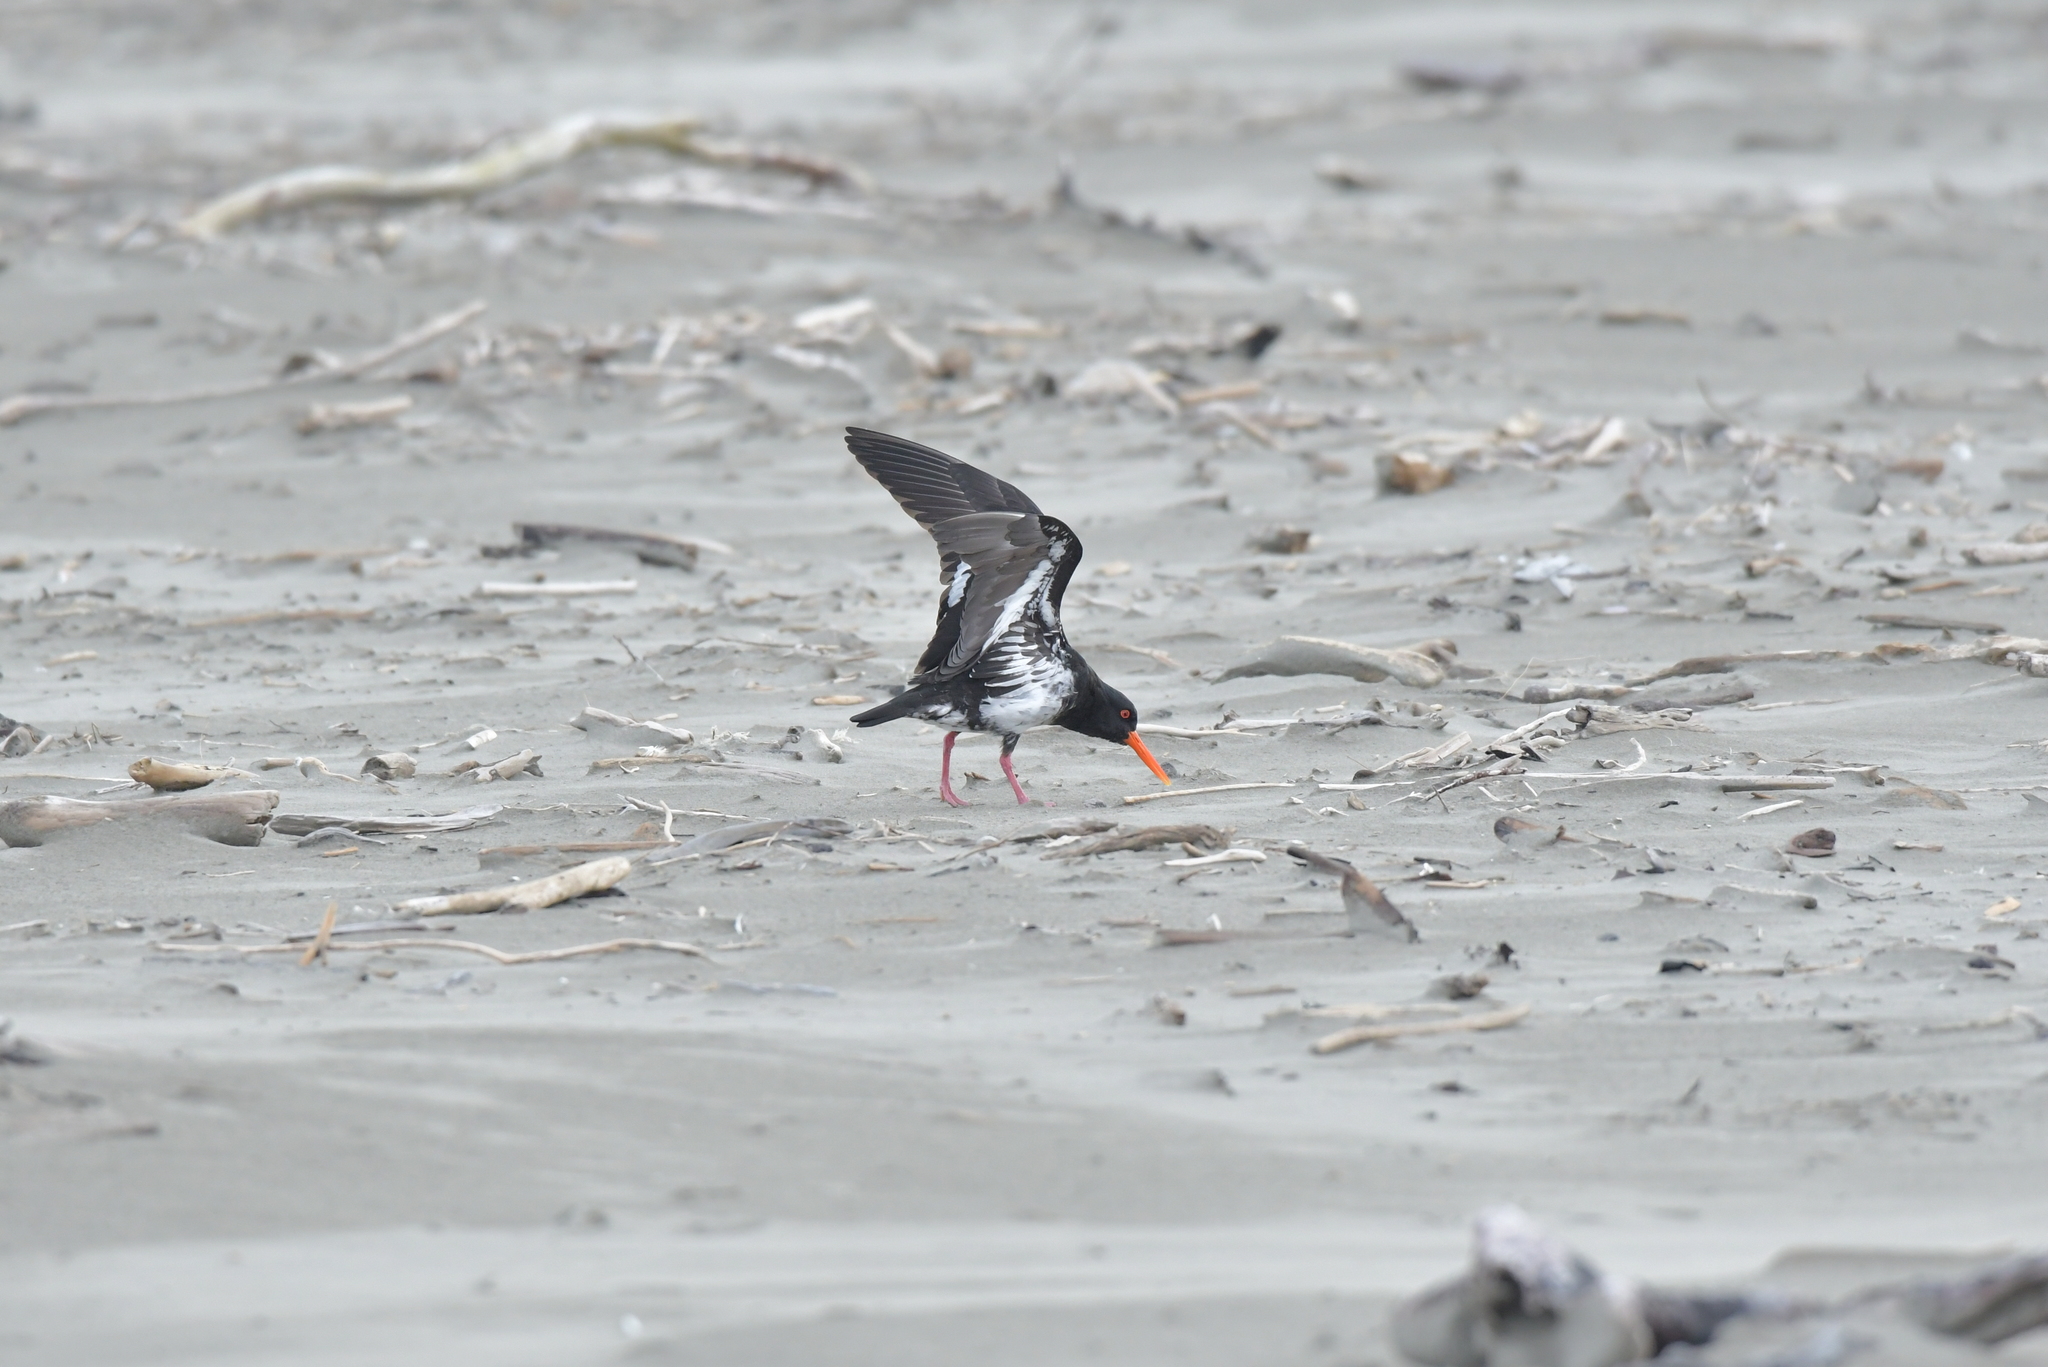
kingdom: Animalia
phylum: Chordata
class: Aves
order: Charadriiformes
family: Haematopodidae
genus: Haematopus
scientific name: Haematopus unicolor
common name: Variable oystercatcher
